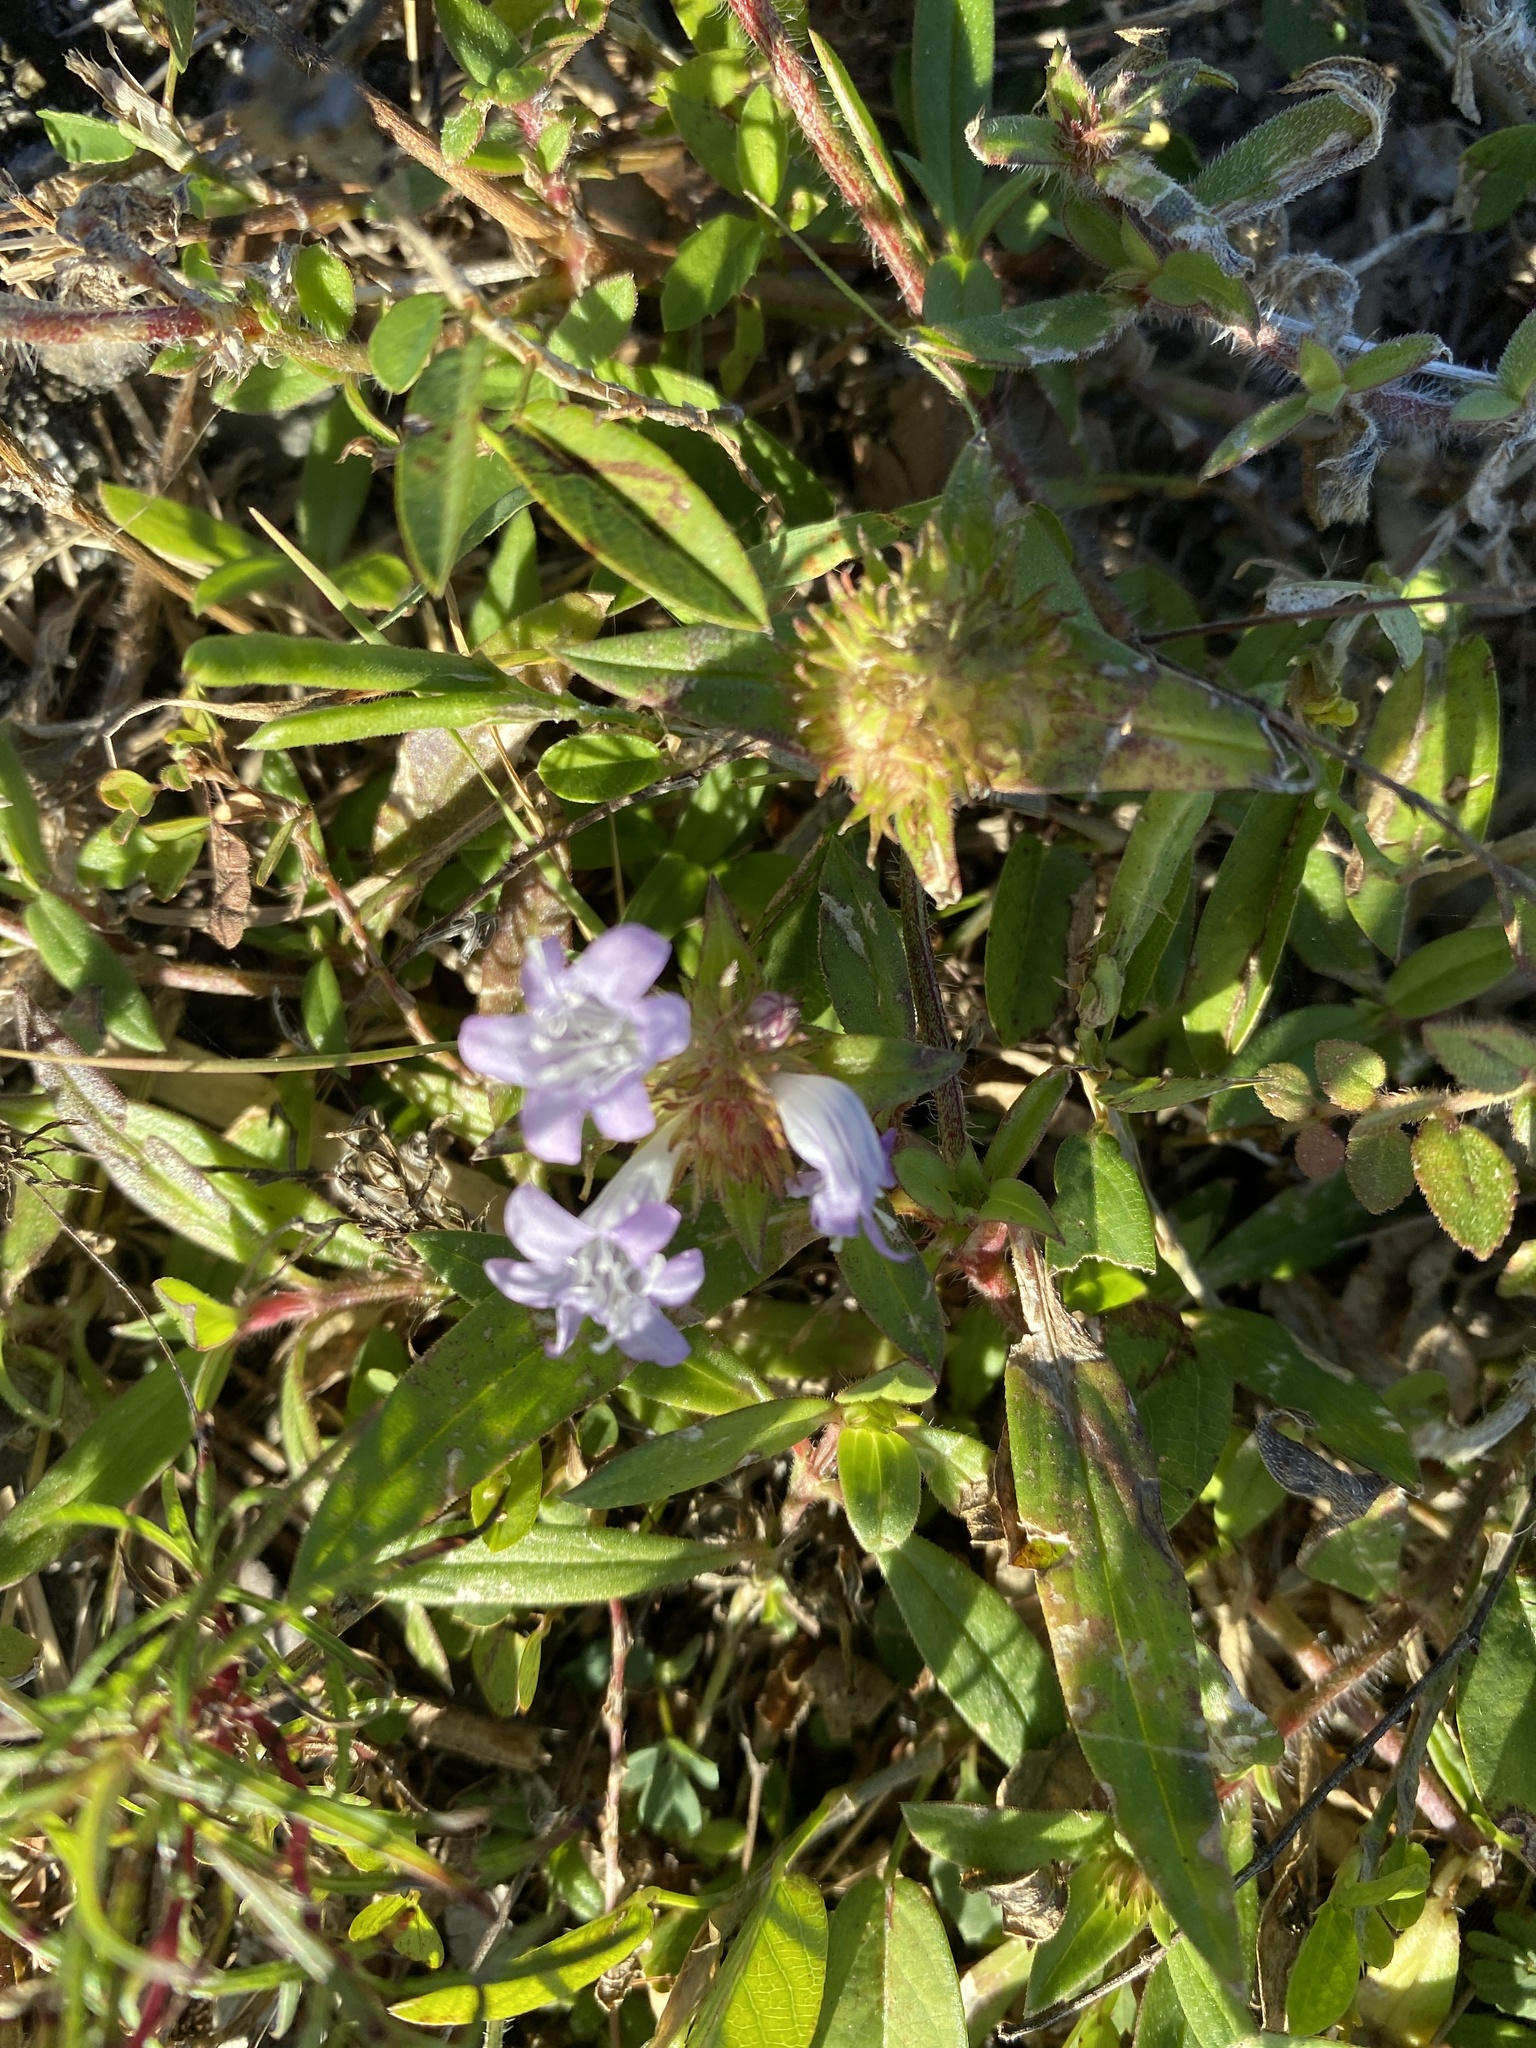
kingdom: Plantae
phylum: Tracheophyta
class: Magnoliopsida
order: Gentianales
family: Rubiaceae
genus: Richardia
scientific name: Richardia grandiflora
